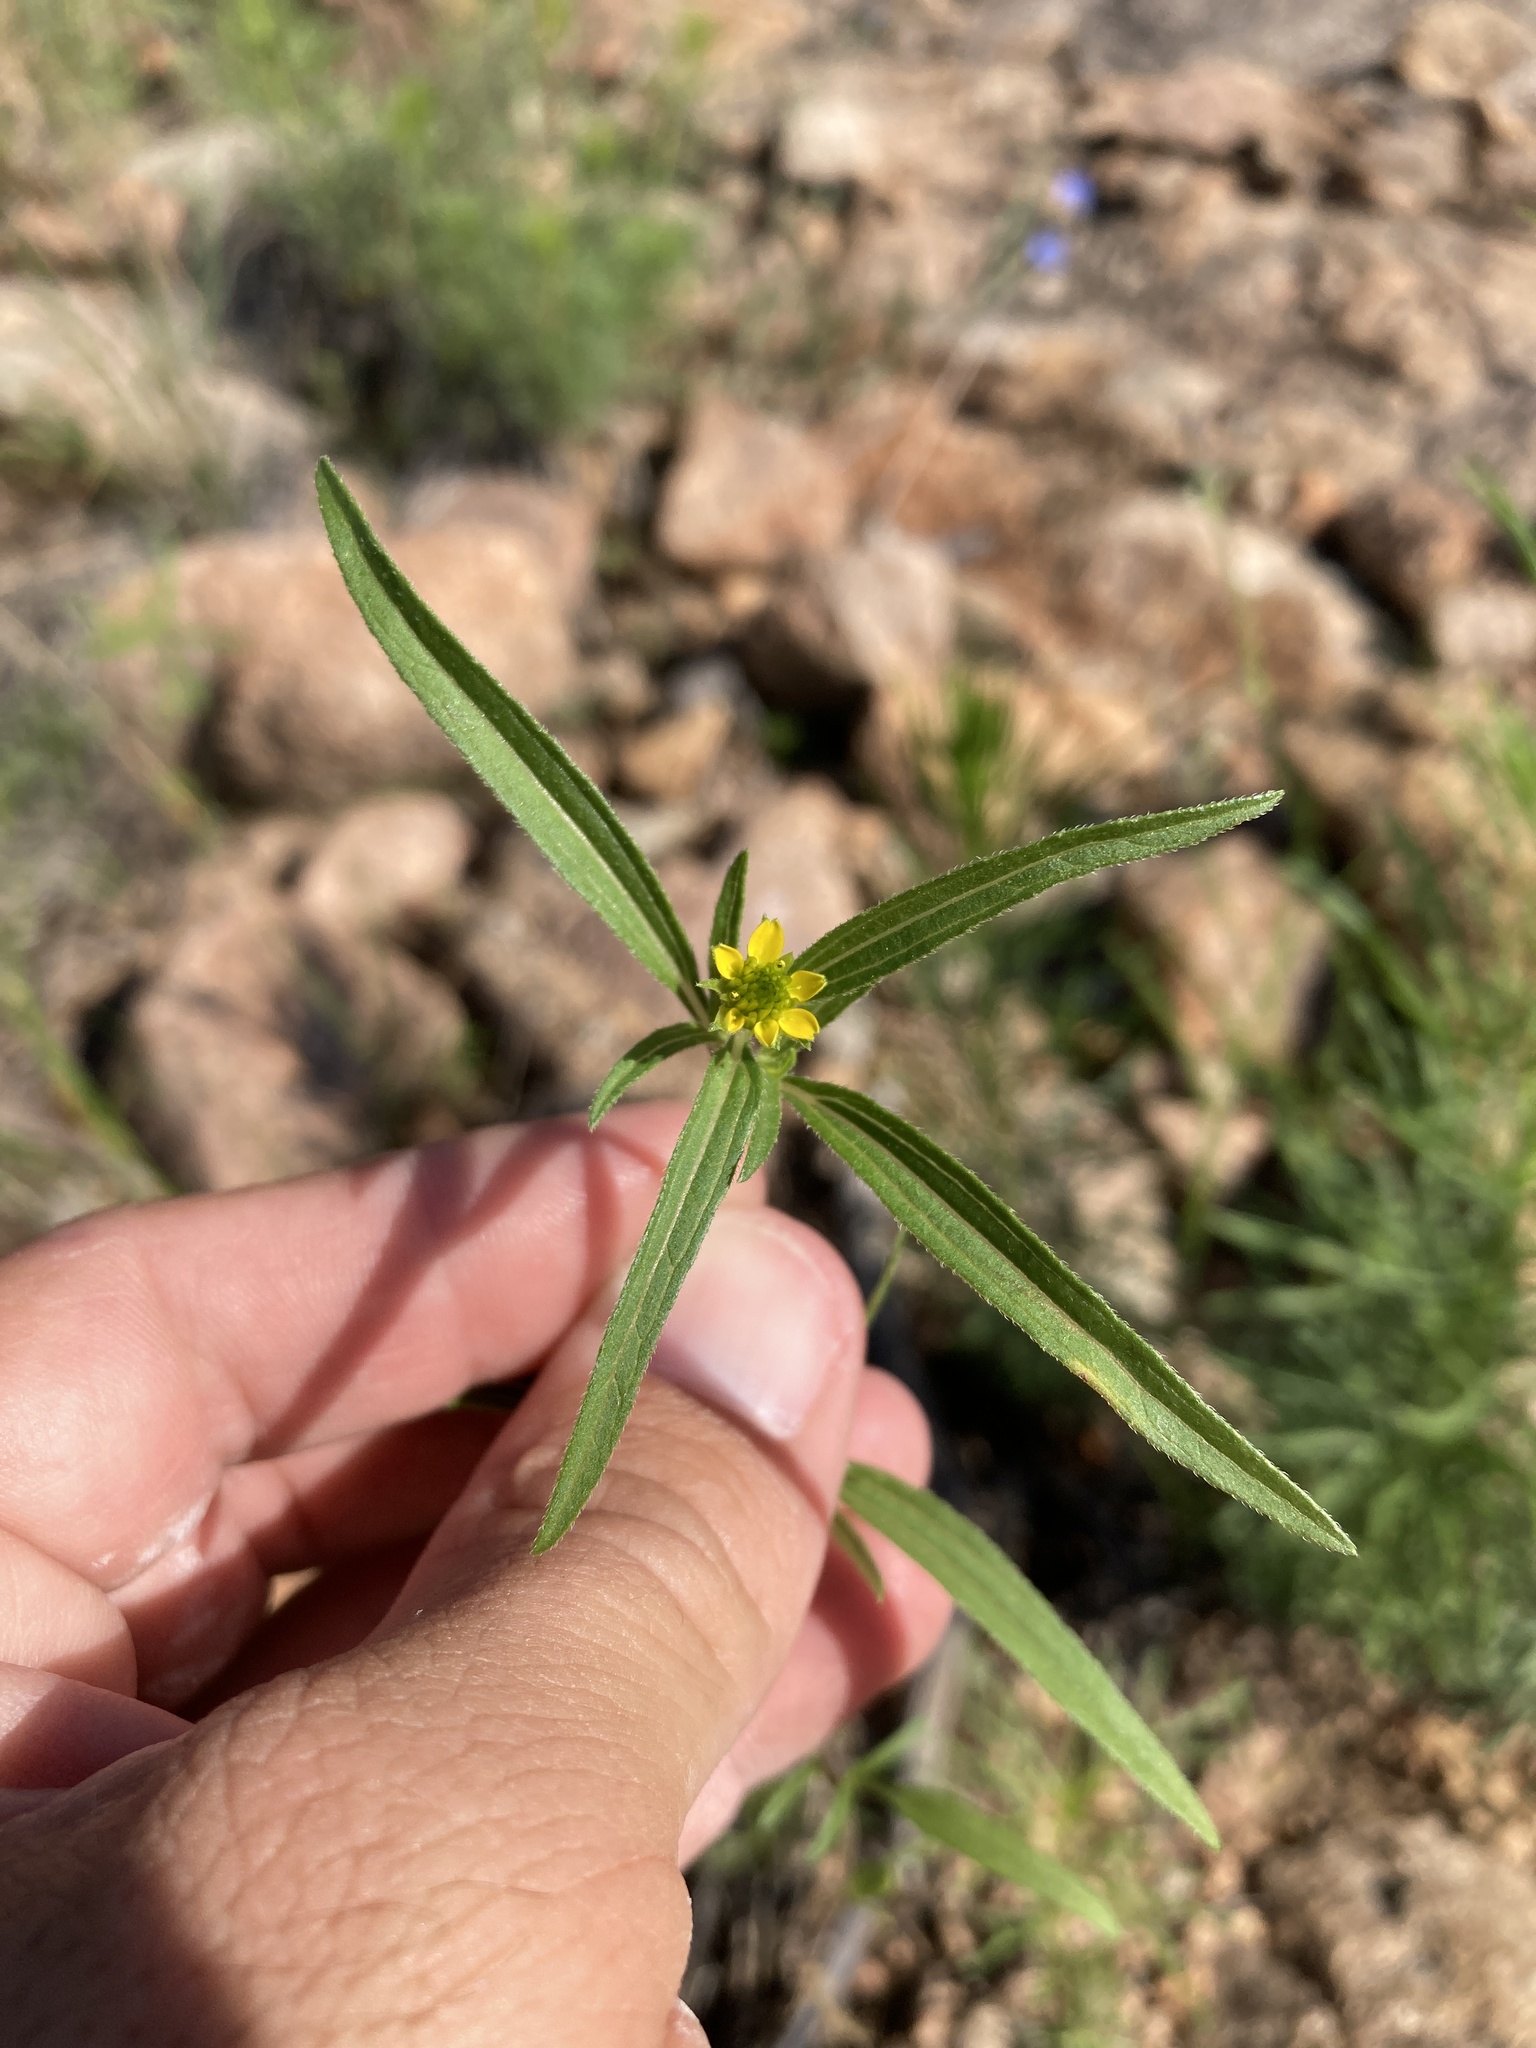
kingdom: Plantae
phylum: Tracheophyta
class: Magnoliopsida
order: Asterales
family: Asteraceae
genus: Sanvitalia
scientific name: Sanvitalia abertii
